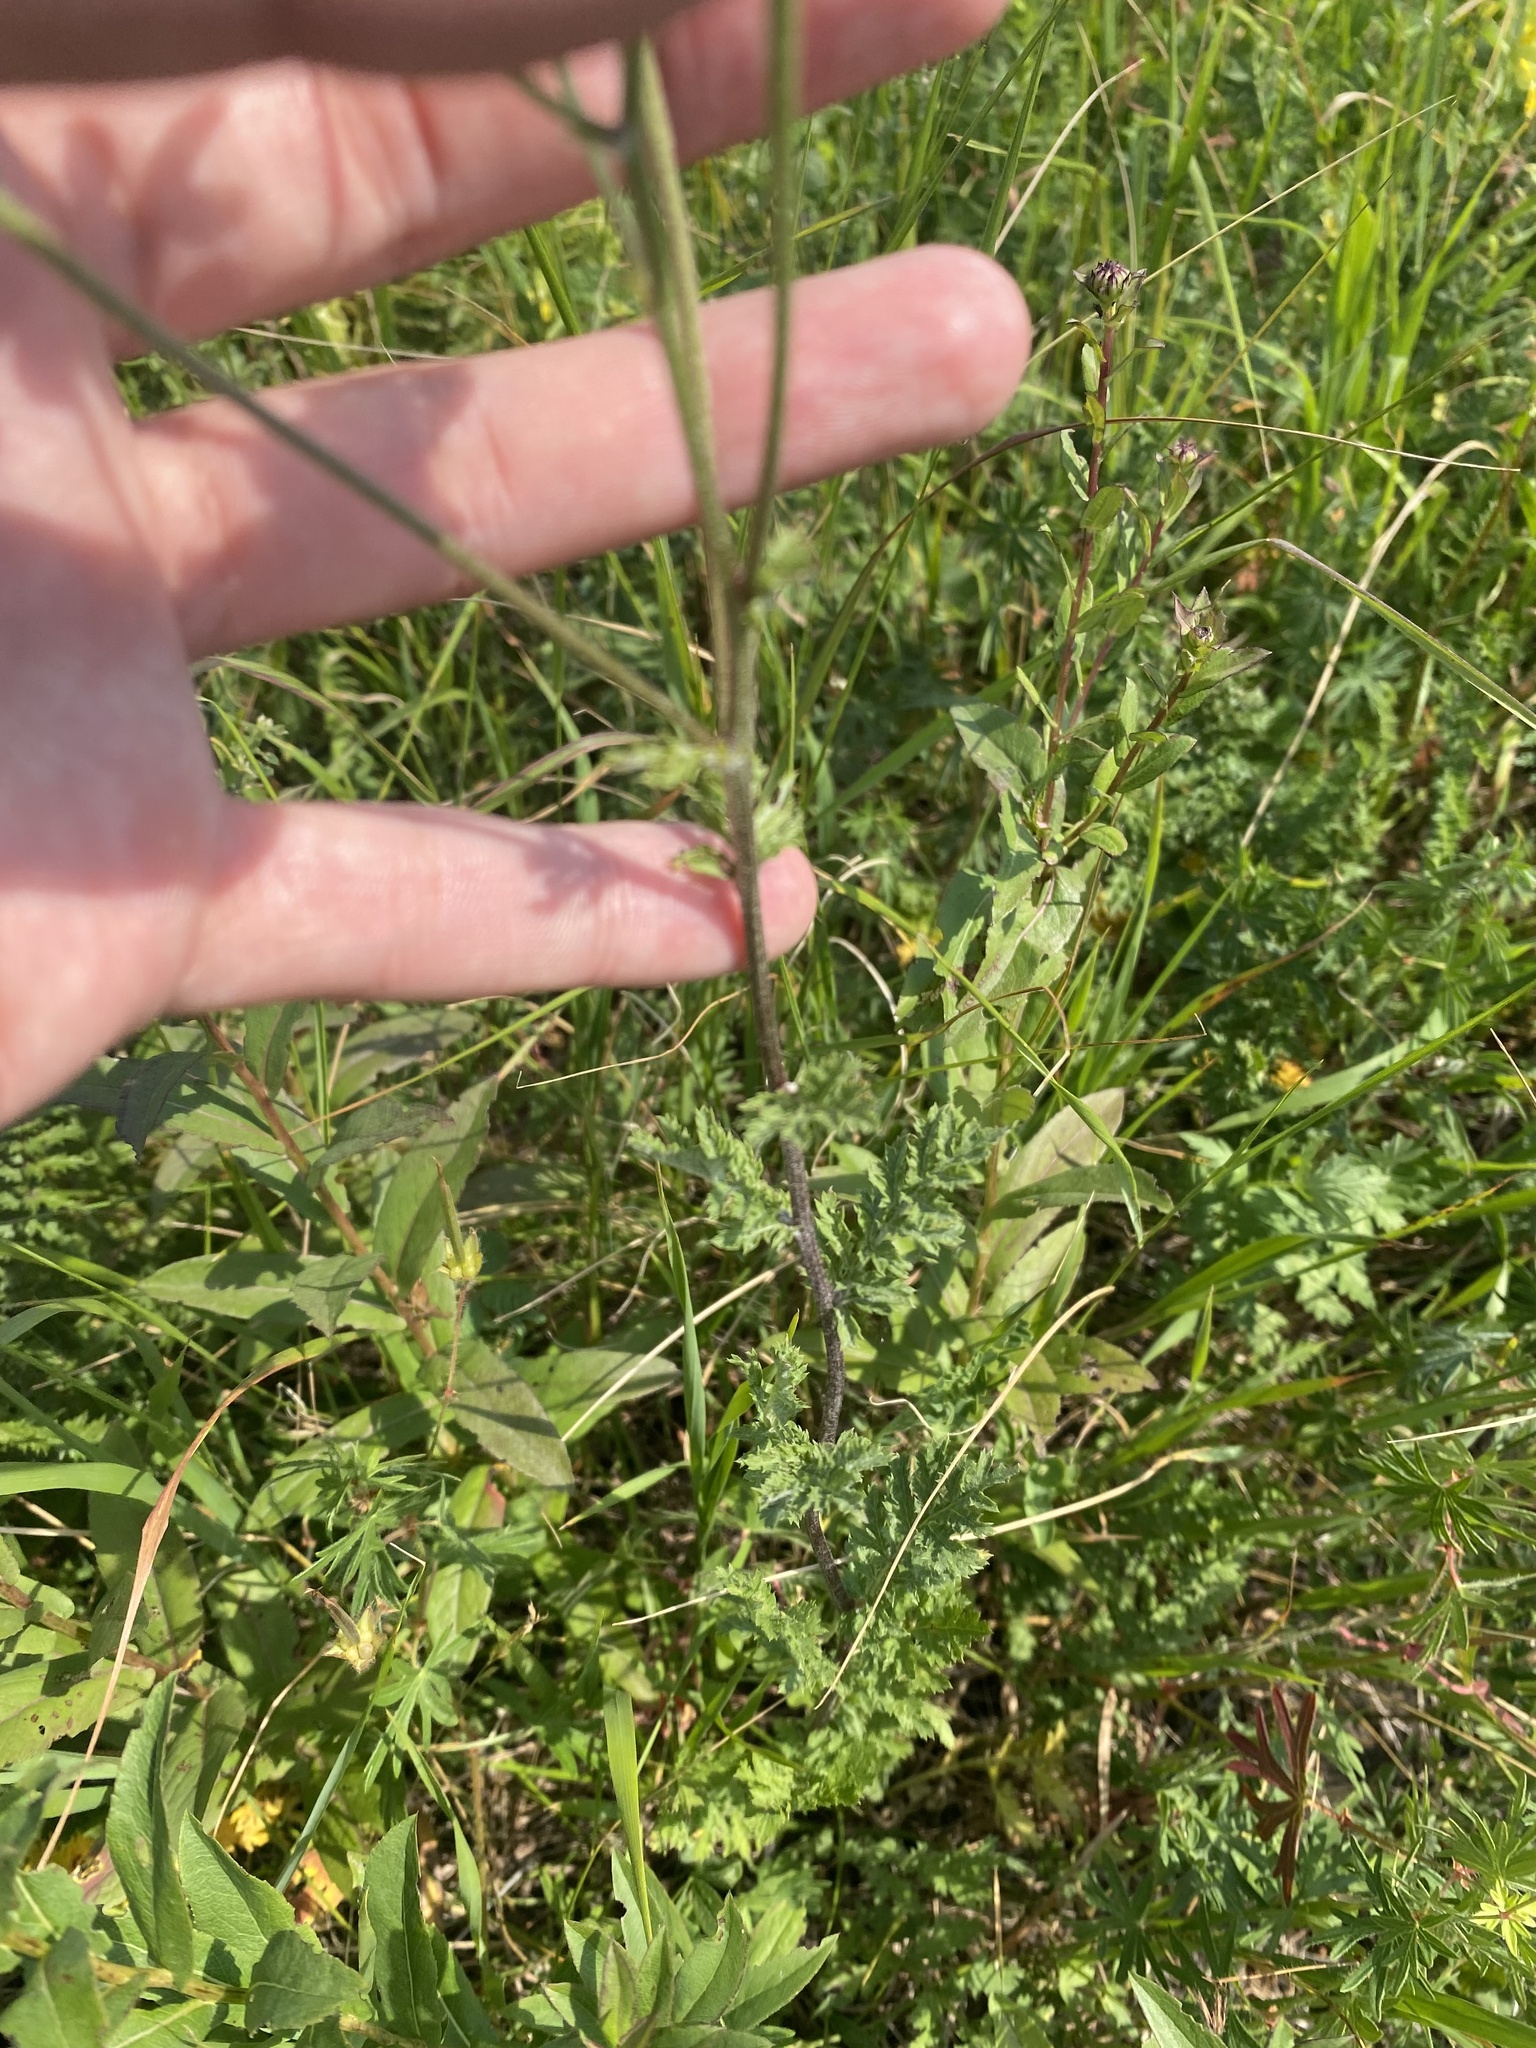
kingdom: Plantae
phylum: Tracheophyta
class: Magnoliopsida
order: Asterales
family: Asteraceae
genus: Tanacetum
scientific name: Tanacetum poteriifolium
